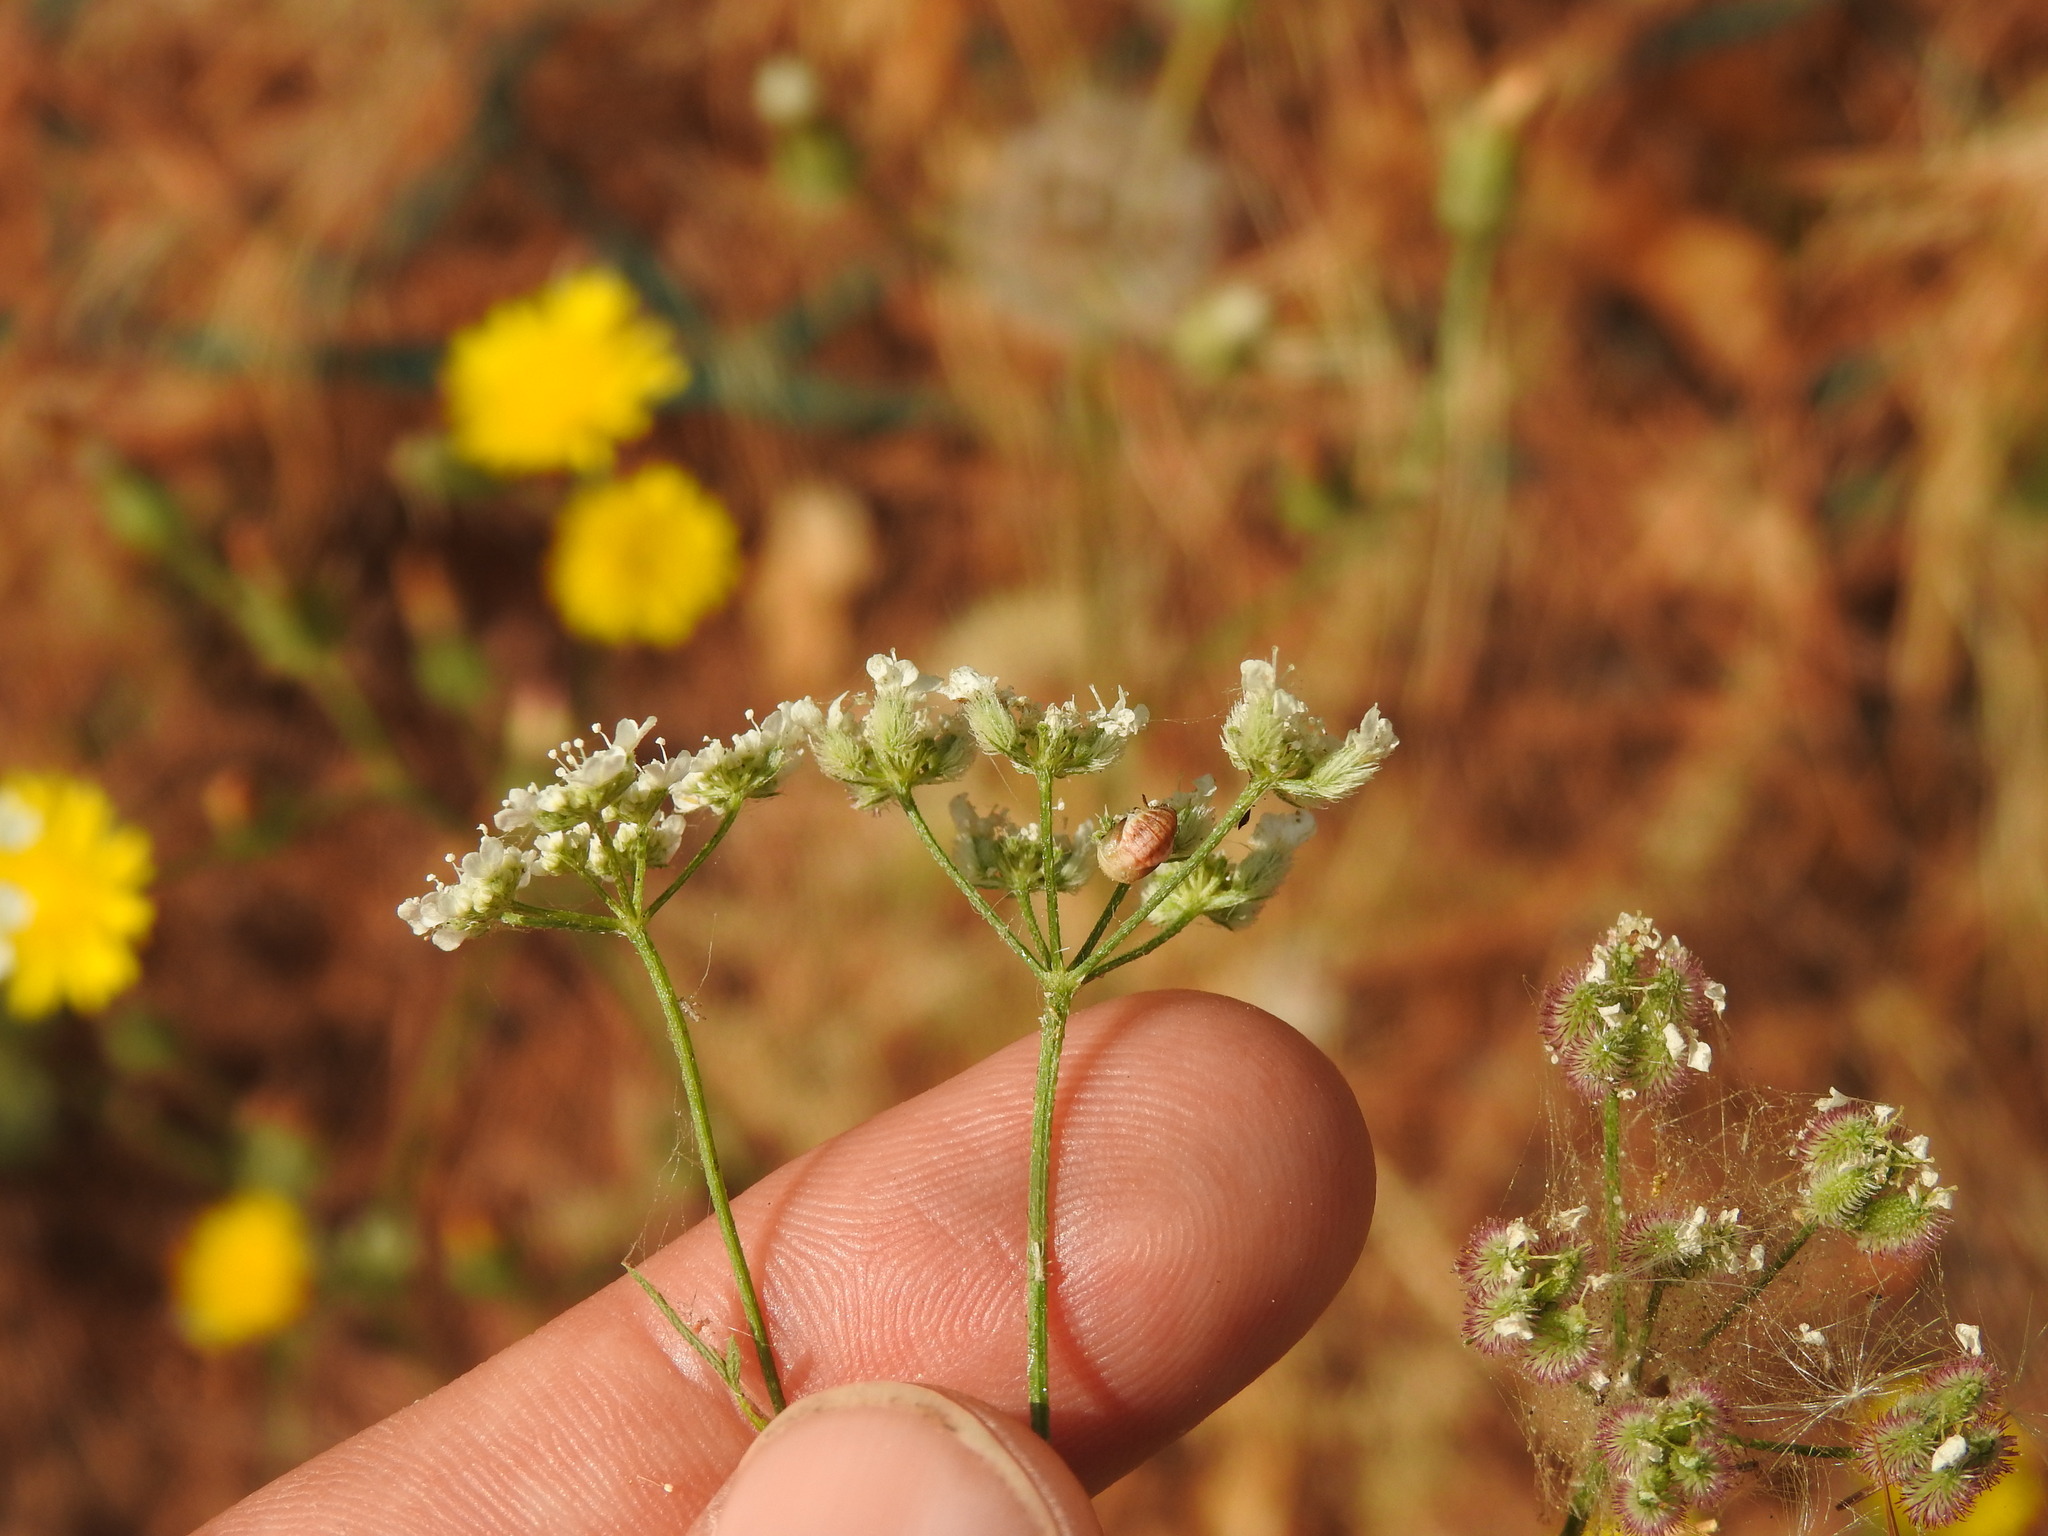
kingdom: Plantae
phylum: Tracheophyta
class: Magnoliopsida
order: Apiales
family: Apiaceae
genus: Torilis
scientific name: Torilis arvensis
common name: Spreading hedge-parsley
